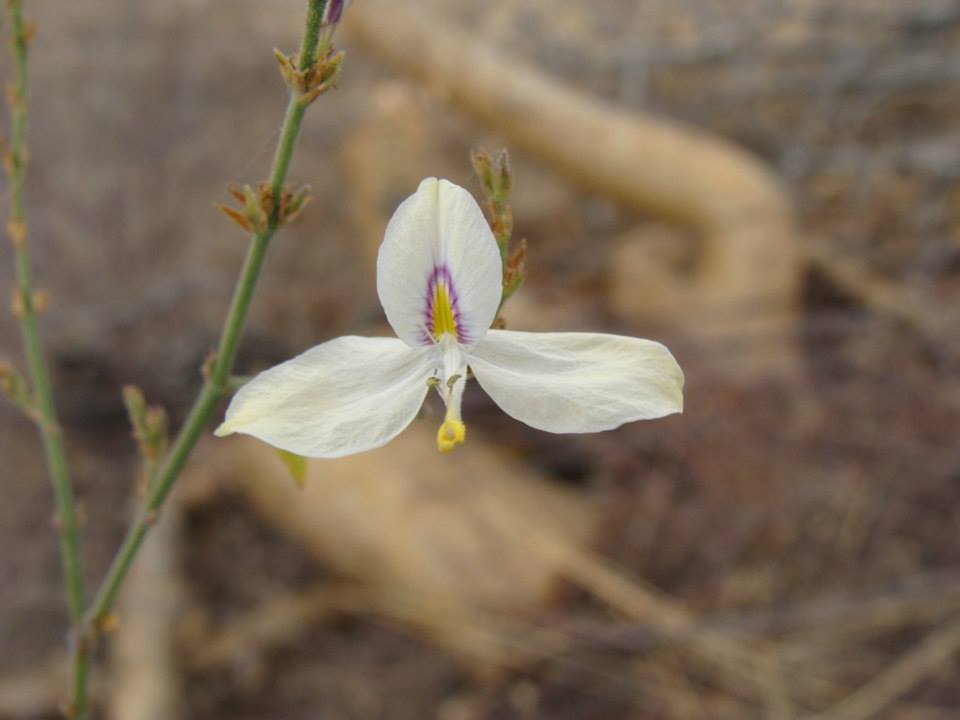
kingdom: Plantae
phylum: Tracheophyta
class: Magnoliopsida
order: Lamiales
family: Acanthaceae
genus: Carlowrightia
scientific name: Carlowrightia arizonica
